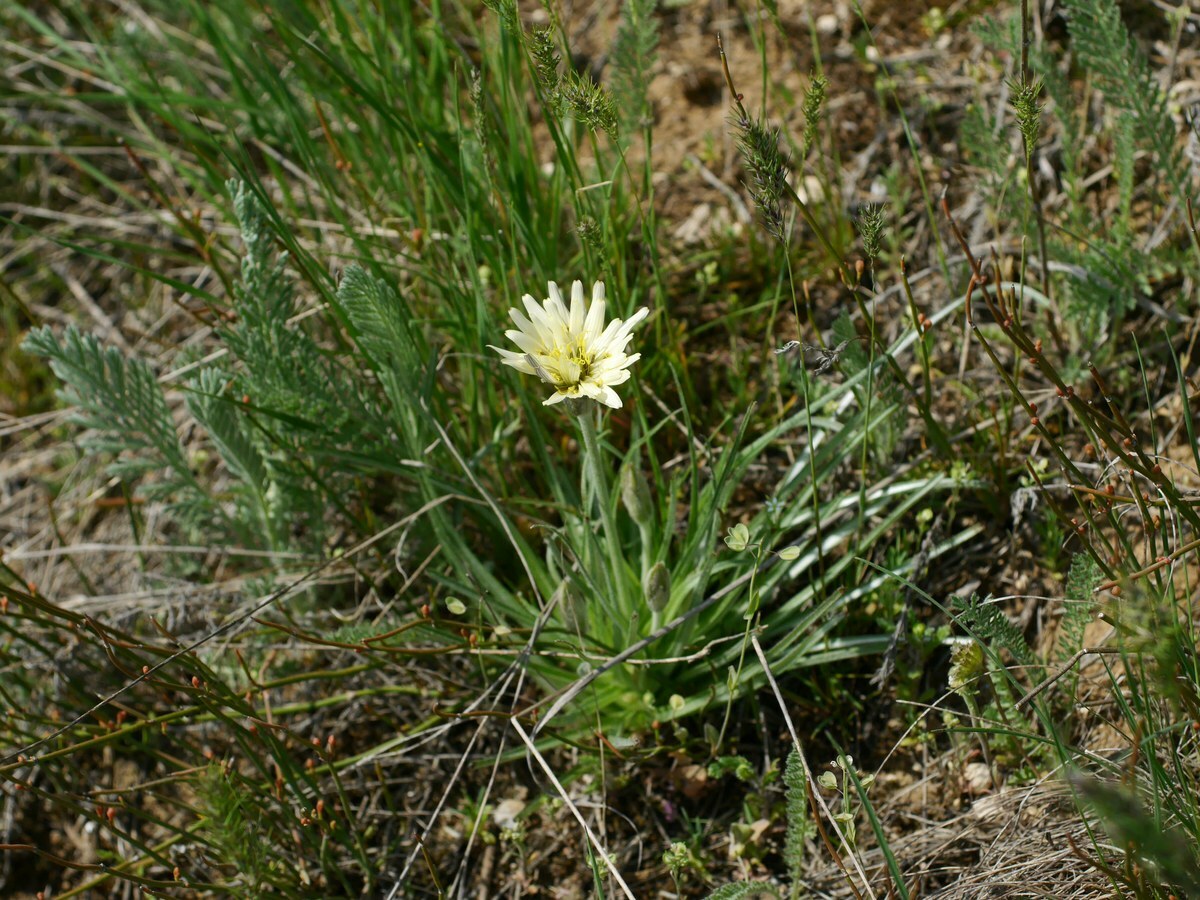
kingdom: Plantae
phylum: Tracheophyta
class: Magnoliopsida
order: Asterales
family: Asteraceae
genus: Candollea
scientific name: Candollea mollis
